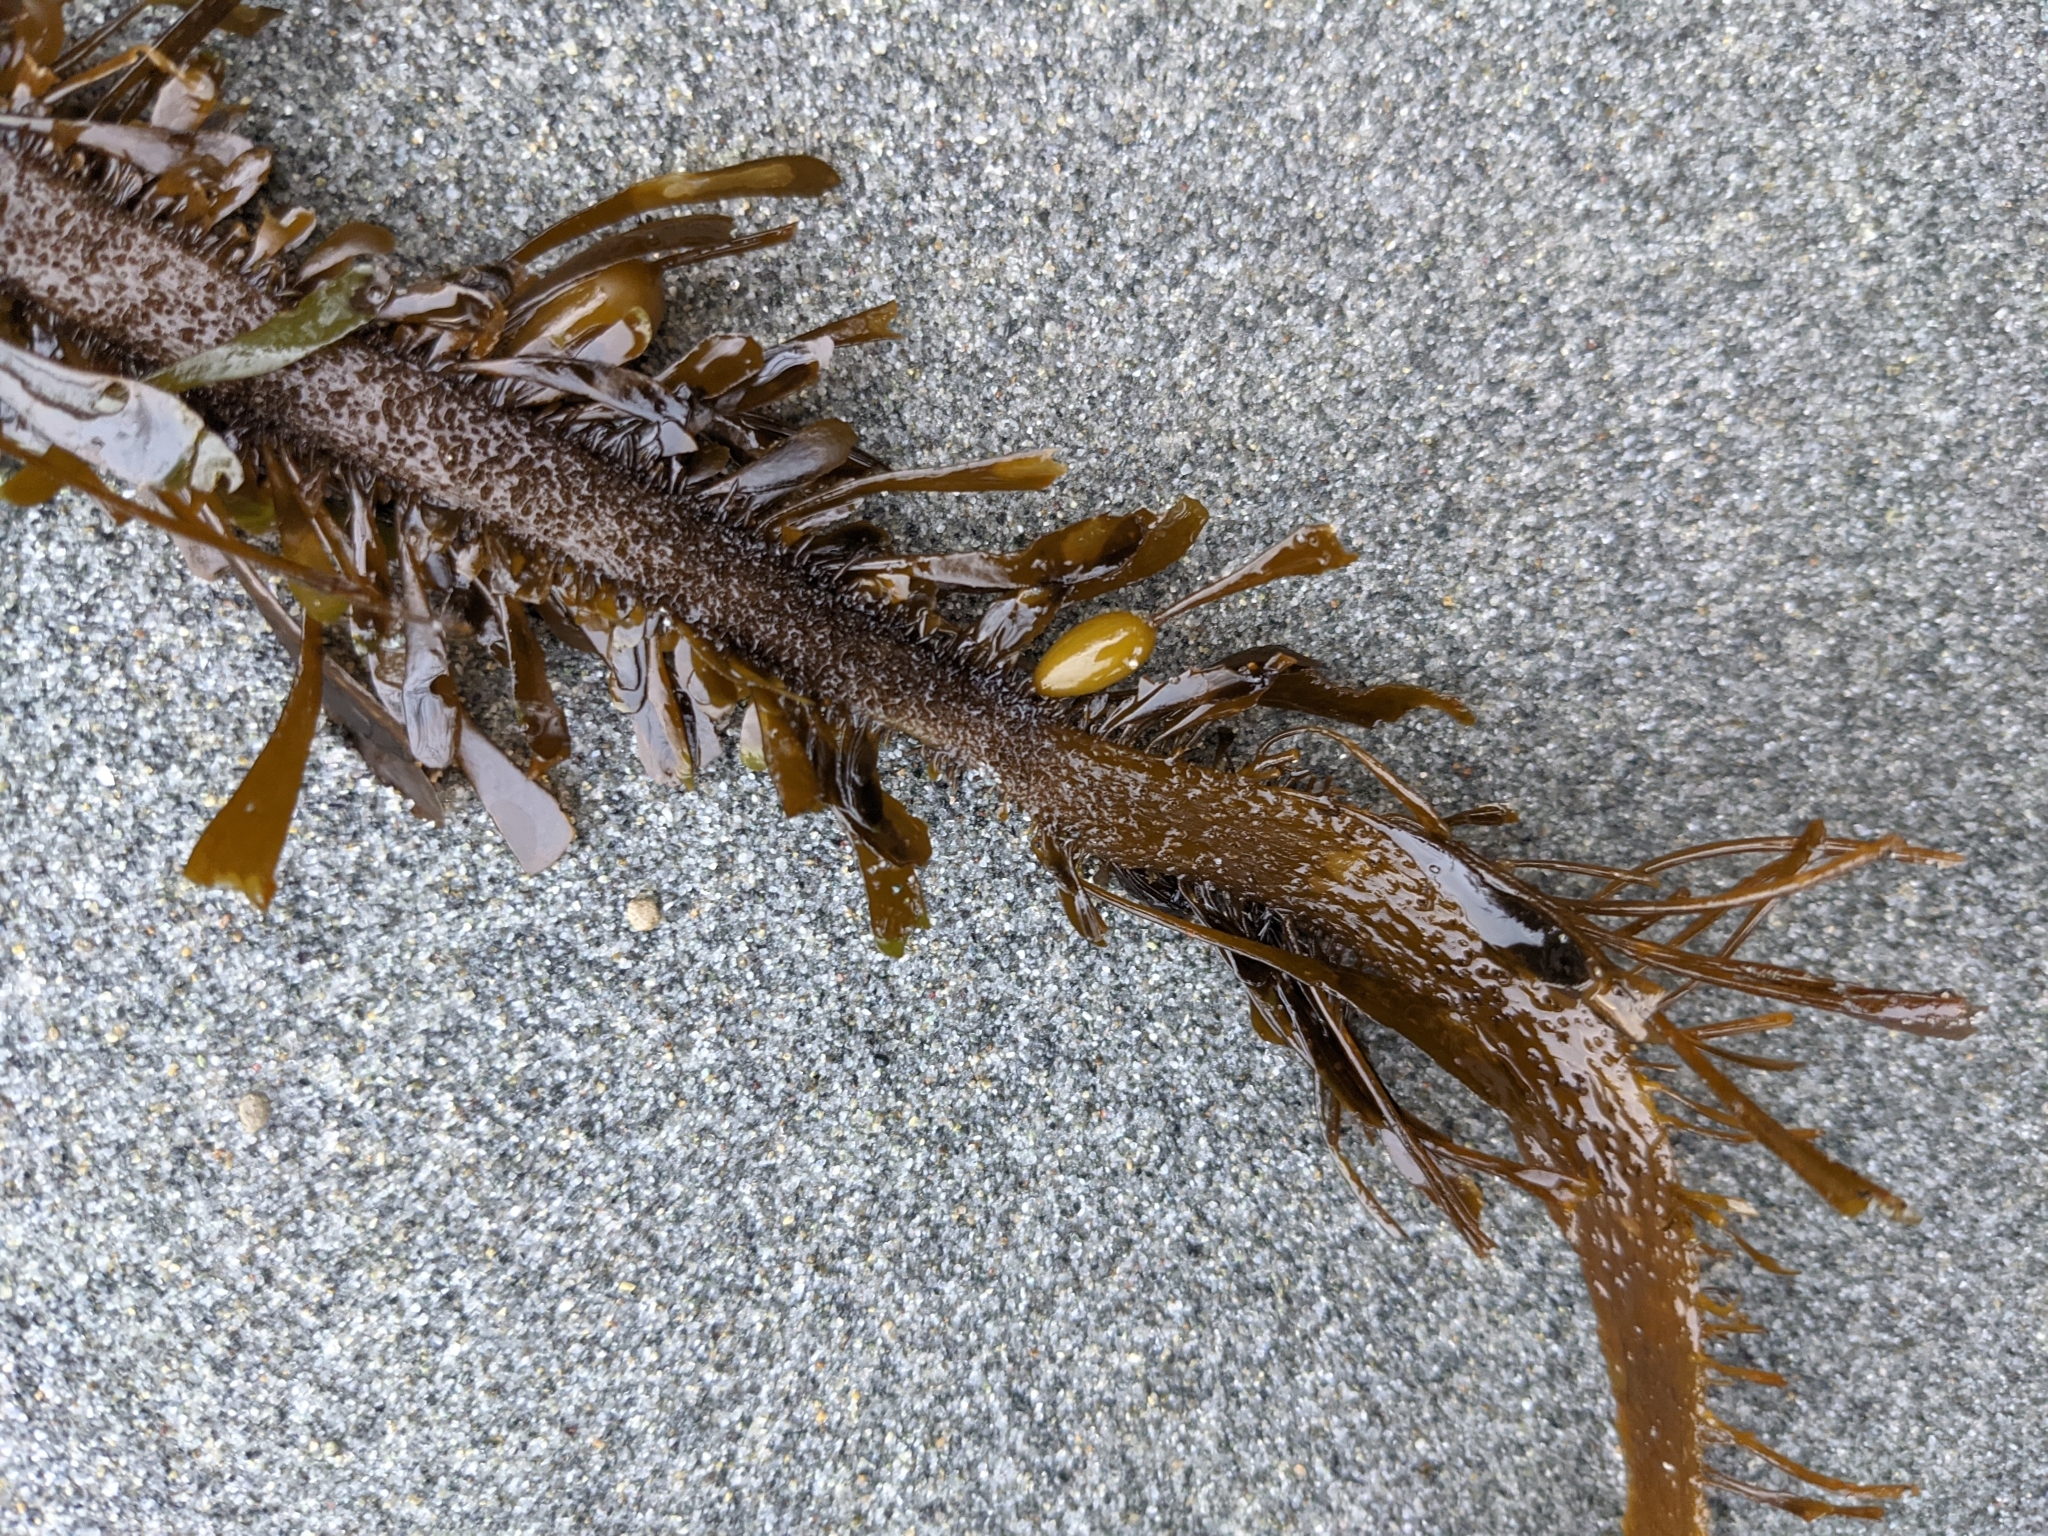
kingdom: Chromista
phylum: Ochrophyta
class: Phaeophyceae
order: Laminariales
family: Lessoniaceae
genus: Egregia
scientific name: Egregia menziesii
